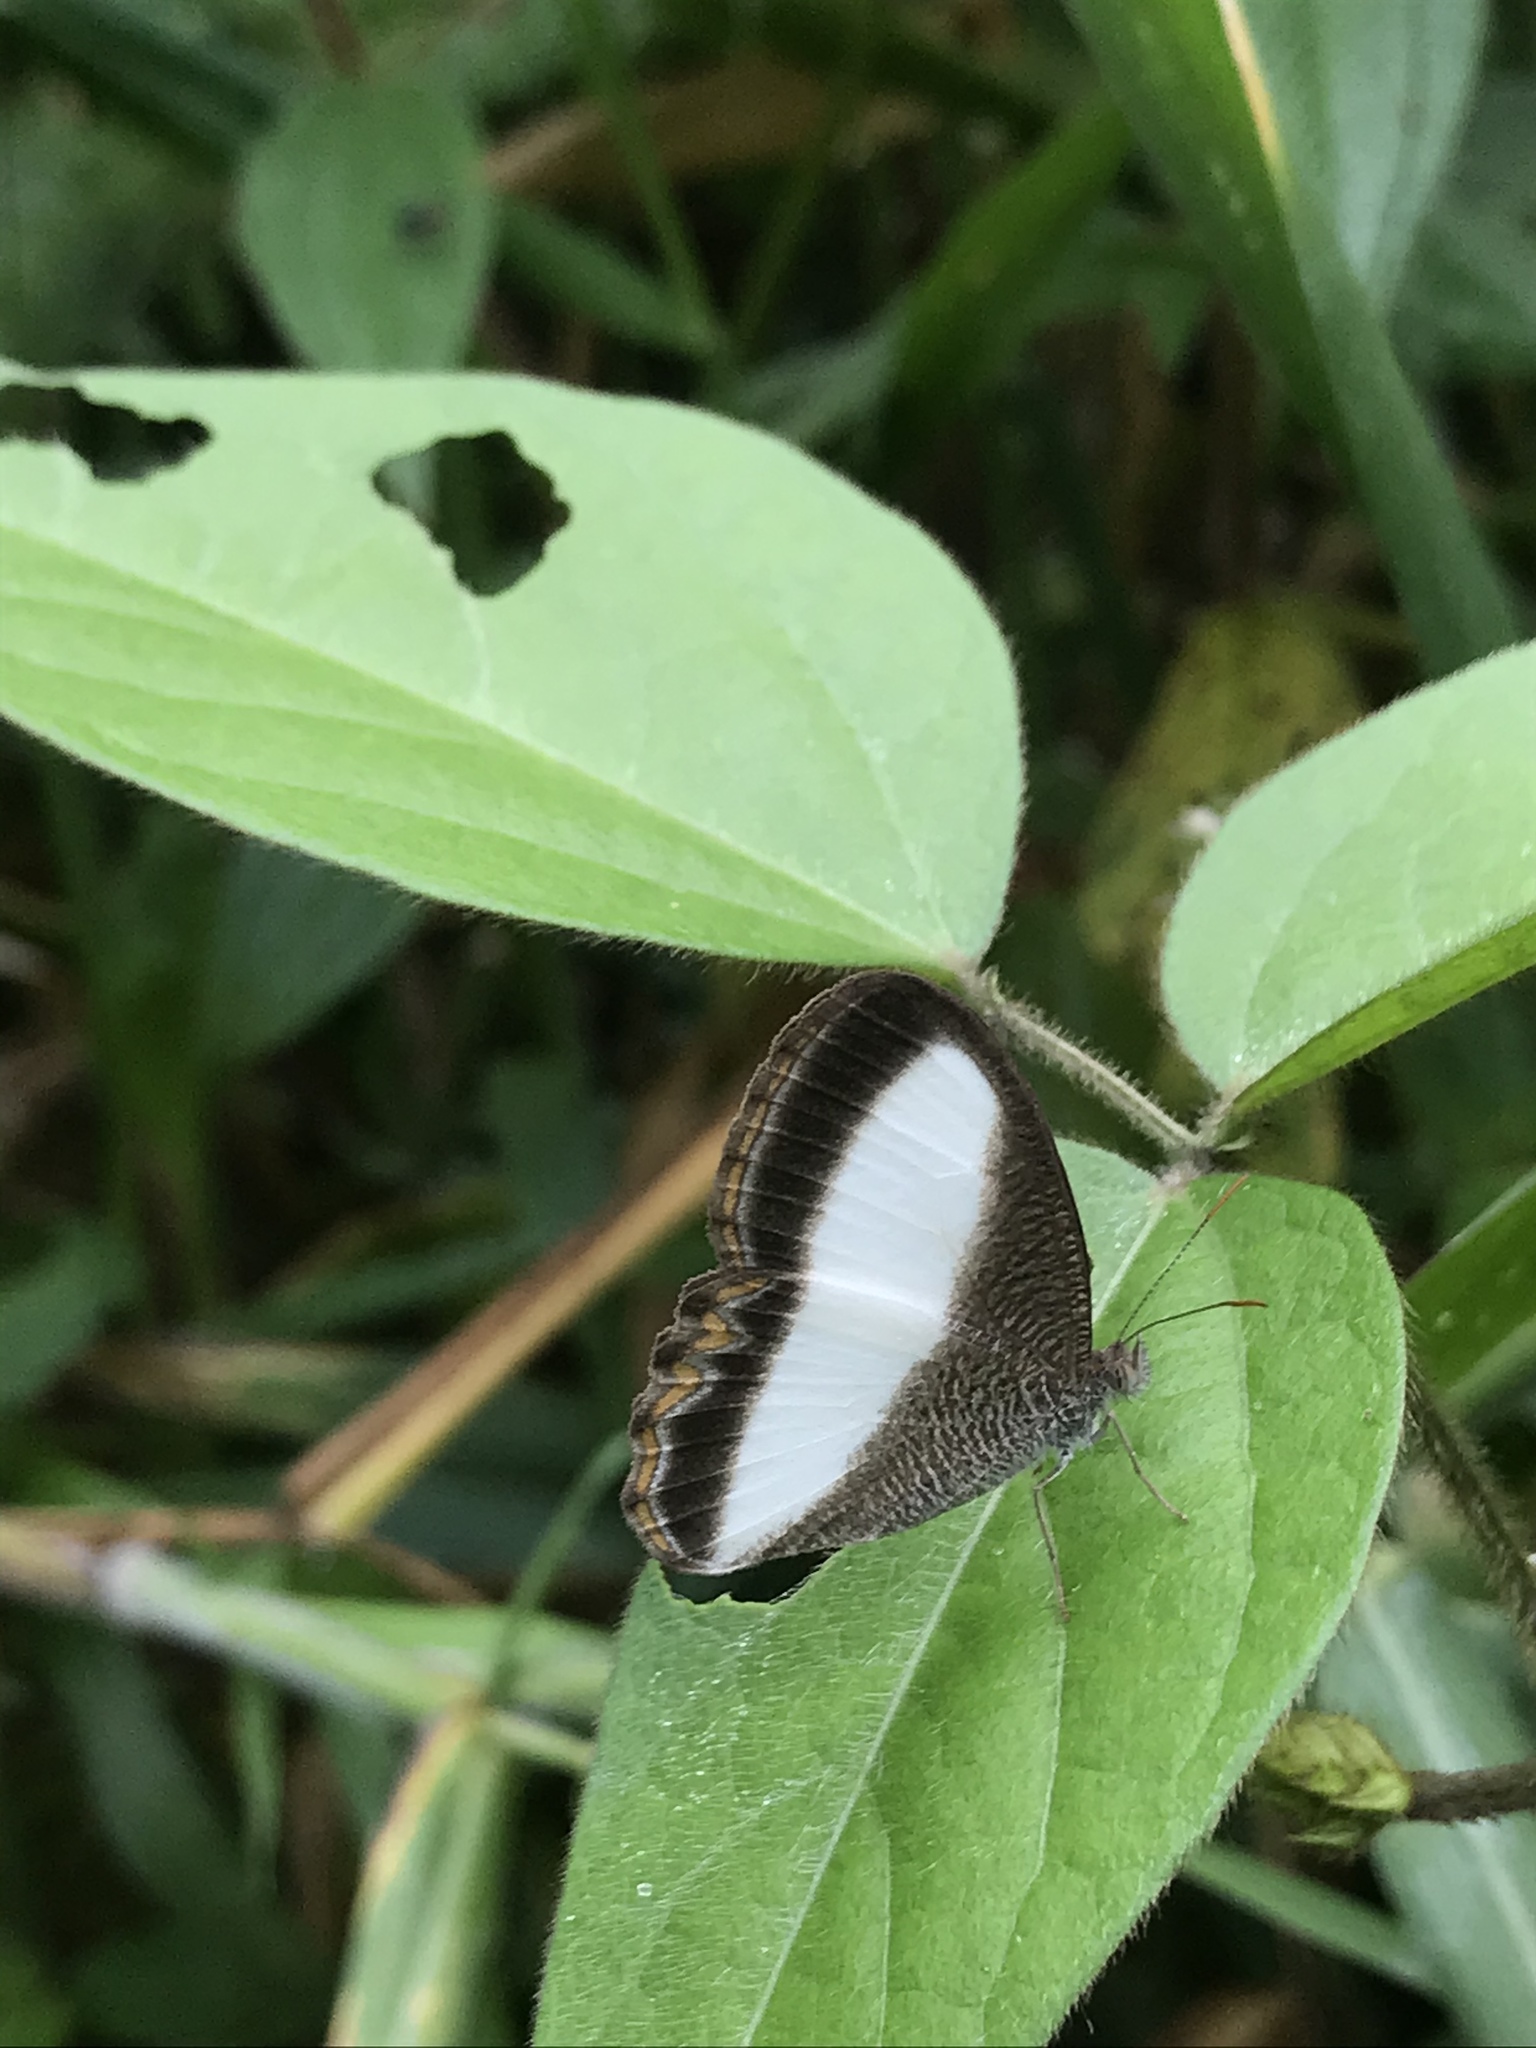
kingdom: Animalia
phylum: Arthropoda
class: Insecta
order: Lepidoptera
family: Nymphalidae
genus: Oressinoma
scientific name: Oressinoma typhla
